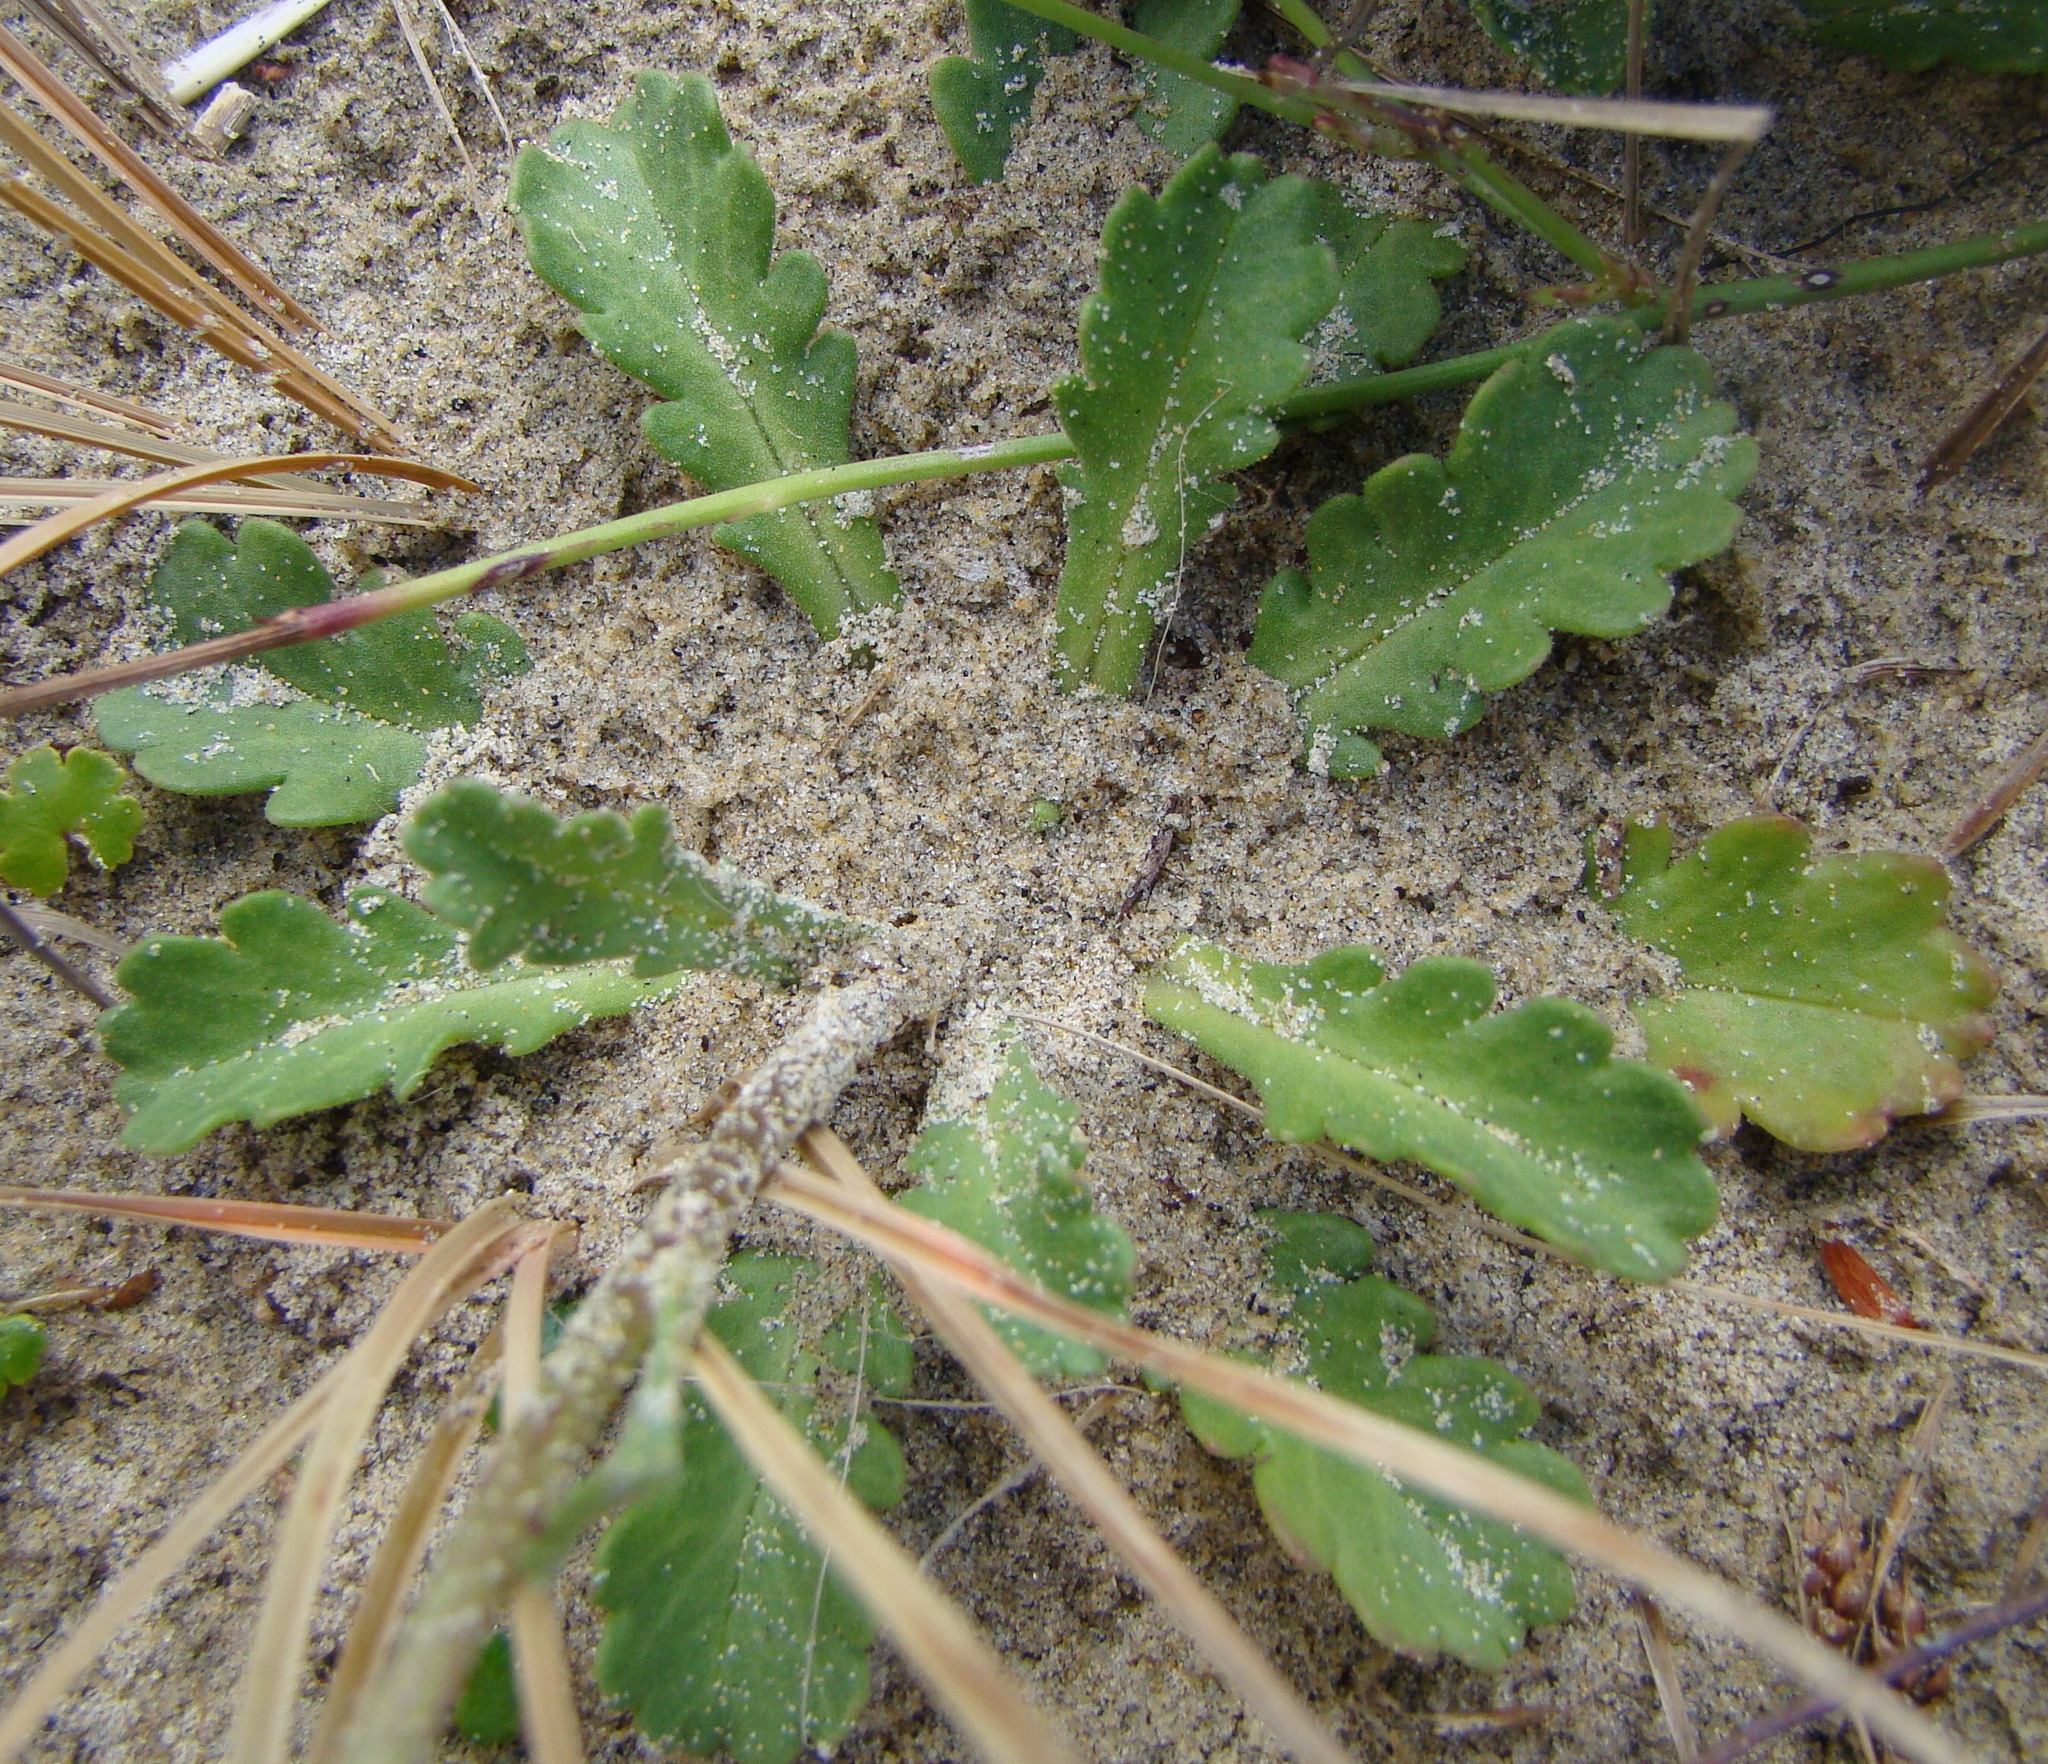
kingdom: Plantae
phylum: Tracheophyta
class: Magnoliopsida
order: Asterales
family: Asteraceae
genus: Leucanthemum
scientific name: Leucanthemum vulgare
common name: Oxeye daisy
